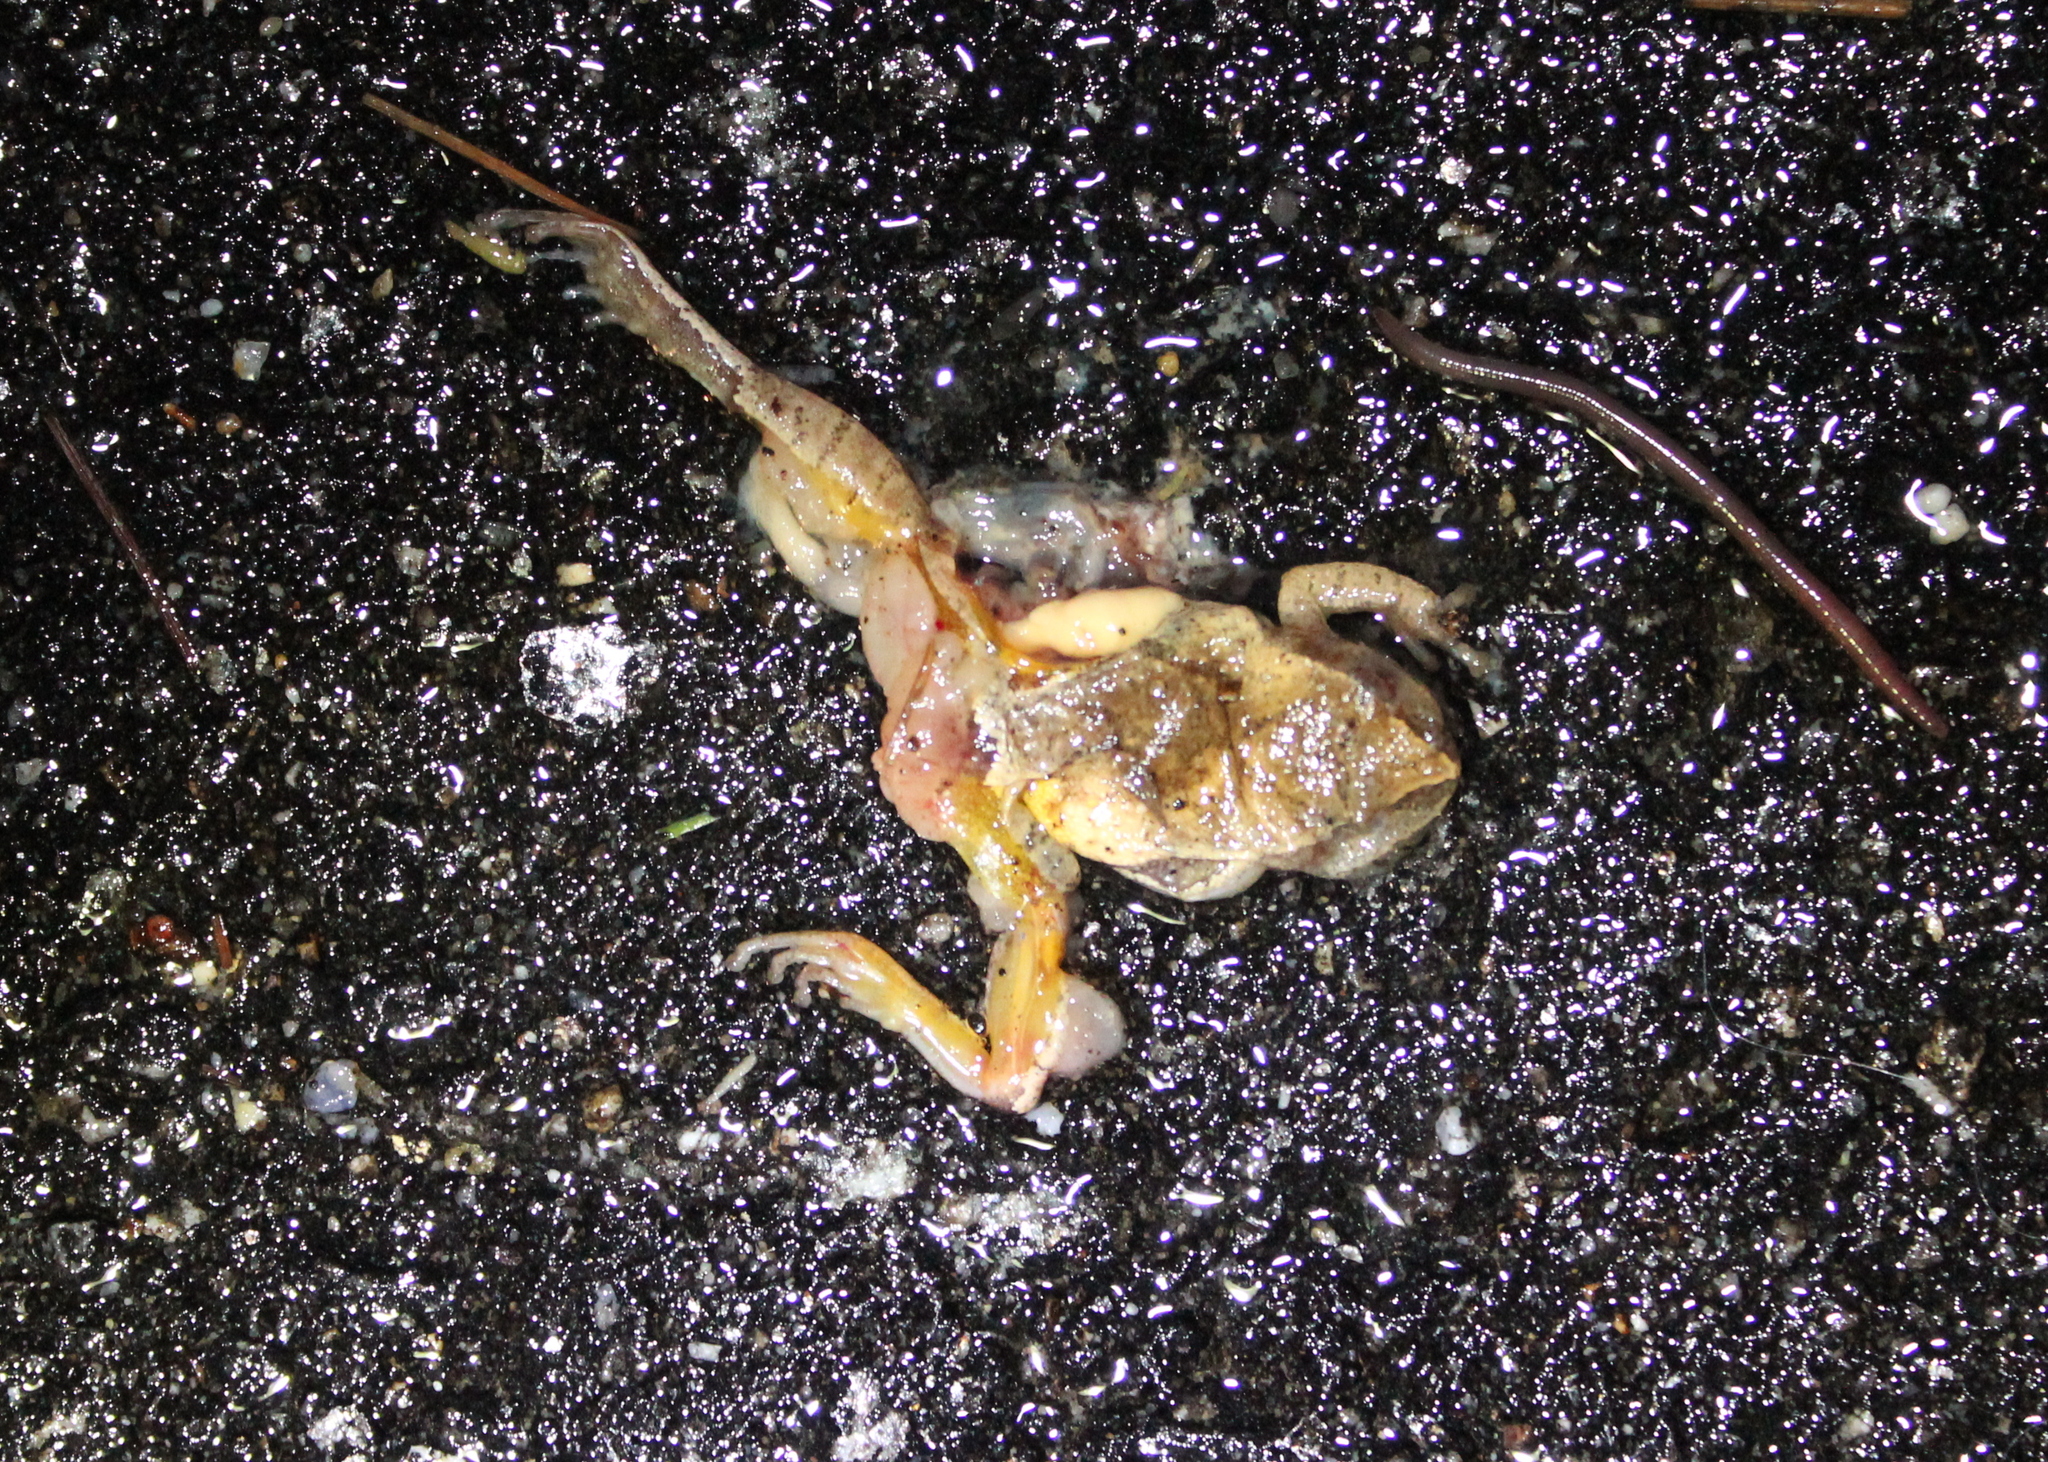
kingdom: Animalia
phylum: Chordata
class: Amphibia
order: Anura
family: Hylidae
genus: Pseudacris
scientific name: Pseudacris crucifer
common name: Spring peeper
